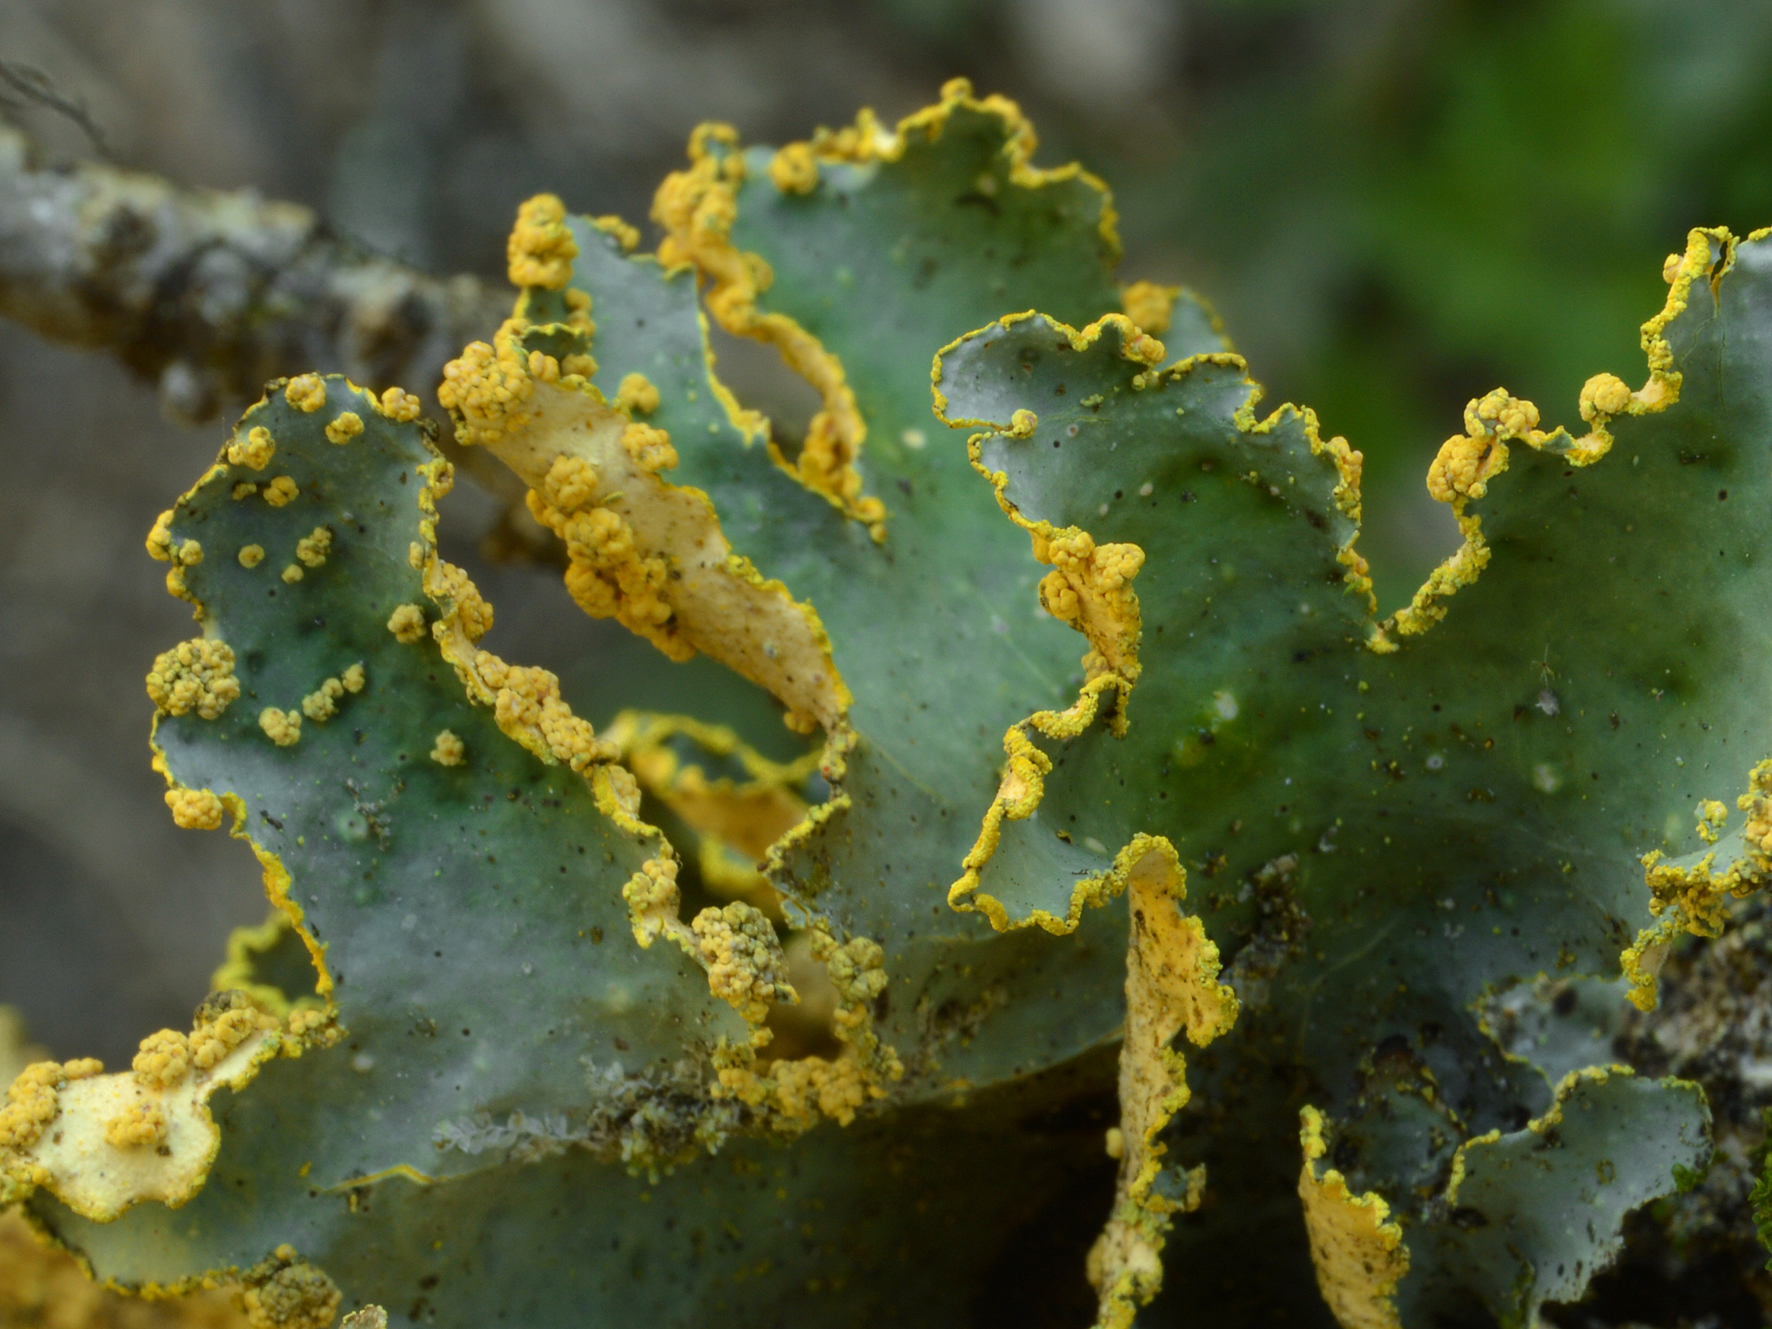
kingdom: Fungi
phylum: Ascomycota
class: Lecanoromycetes
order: Peltigerales
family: Lobariaceae
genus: Crocodia
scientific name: Crocodia poculifera
